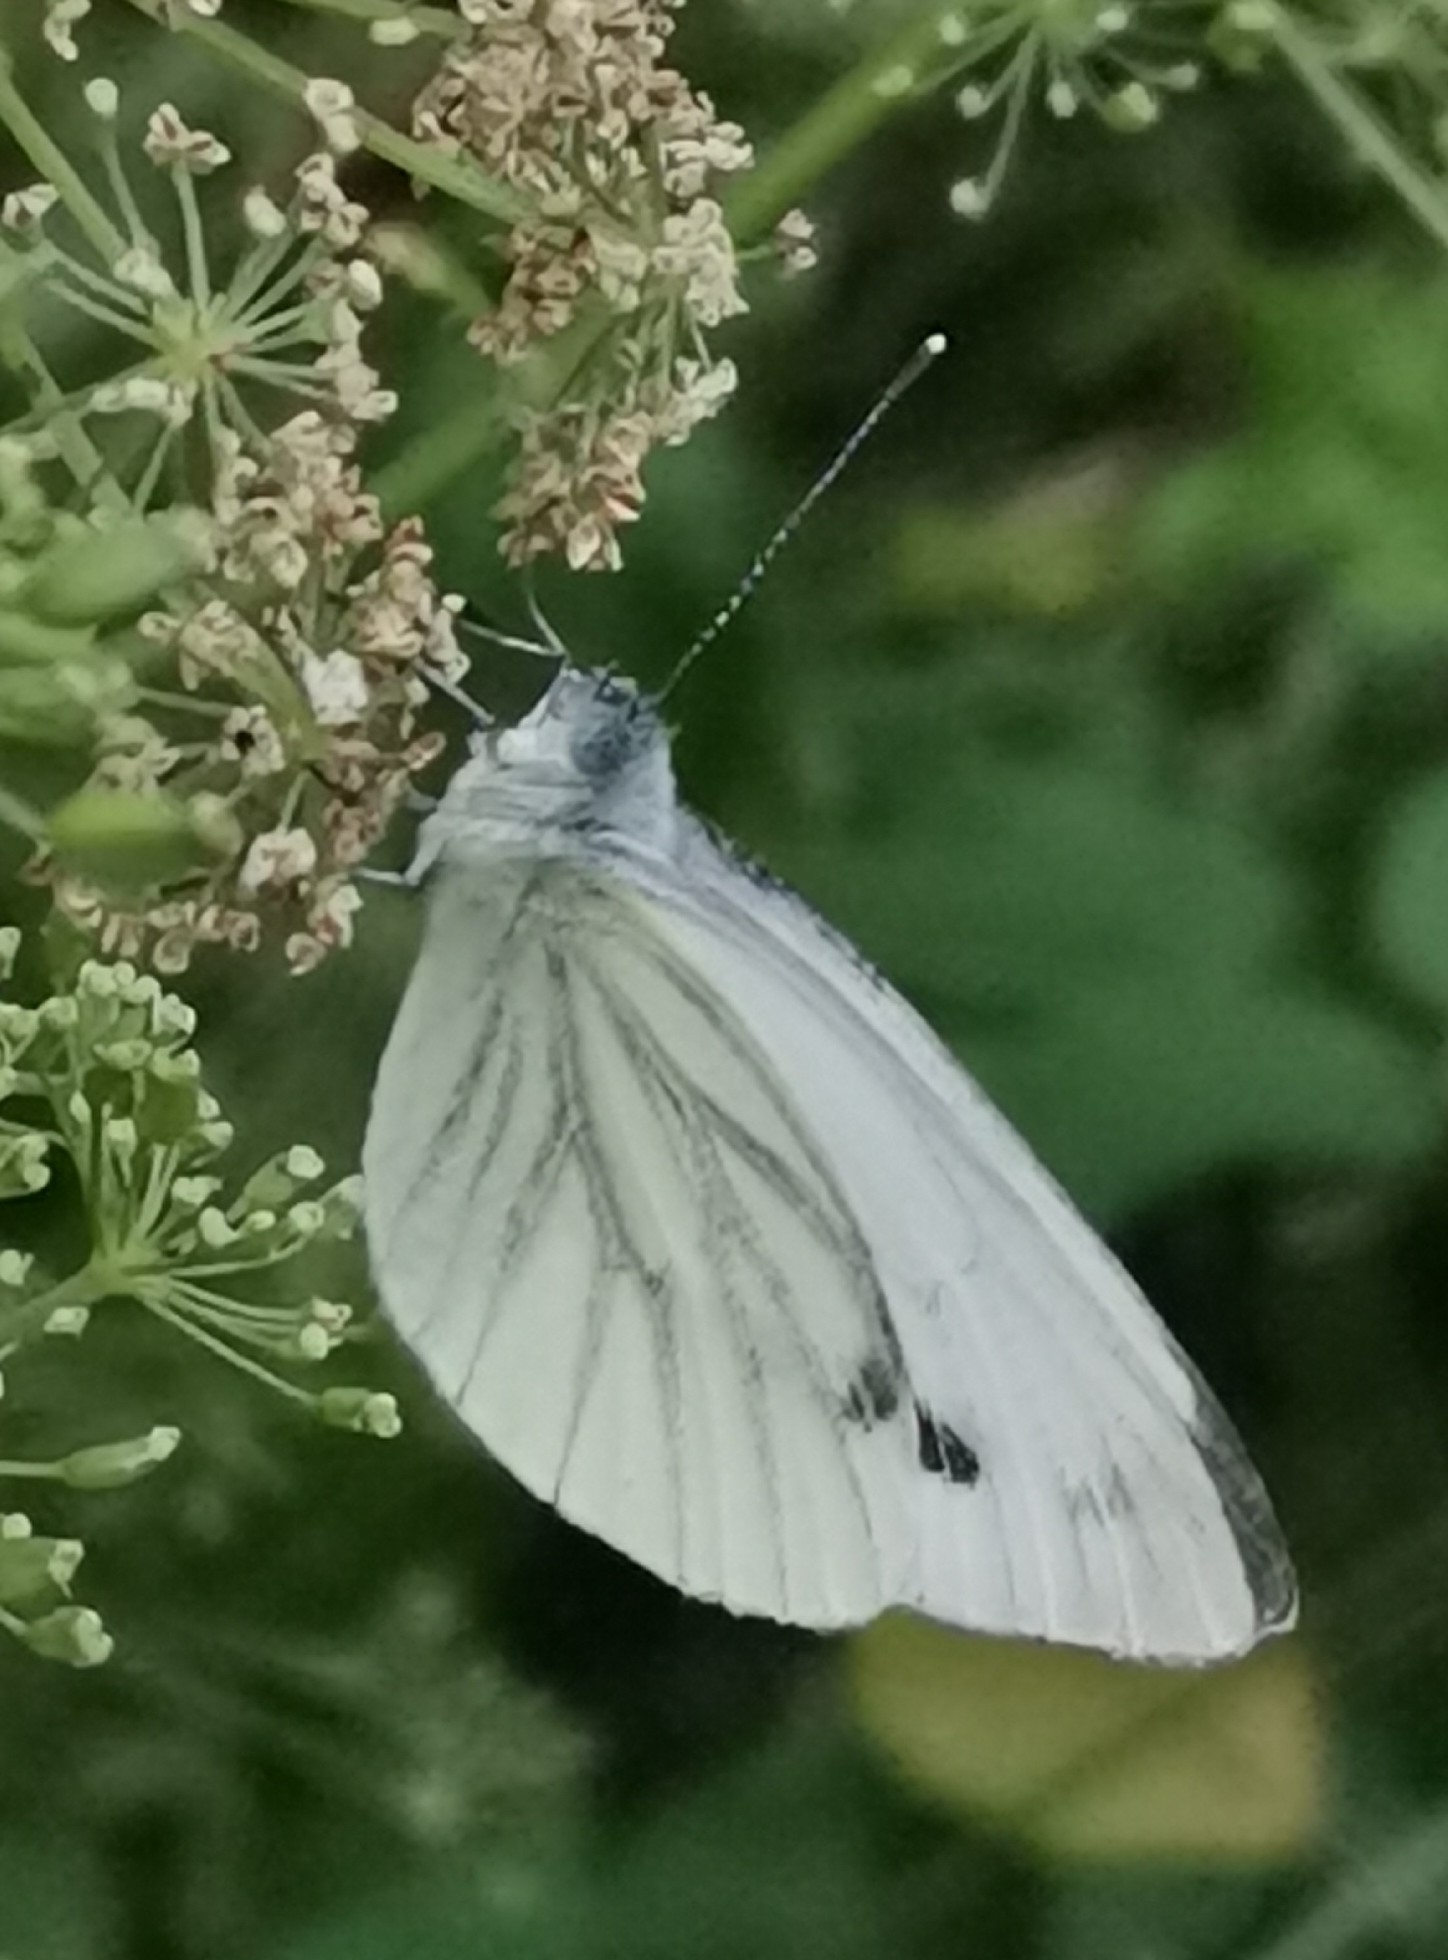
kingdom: Animalia
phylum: Arthropoda
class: Insecta
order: Lepidoptera
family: Pieridae
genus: Pieris
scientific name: Pieris napi
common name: Green-veined white
